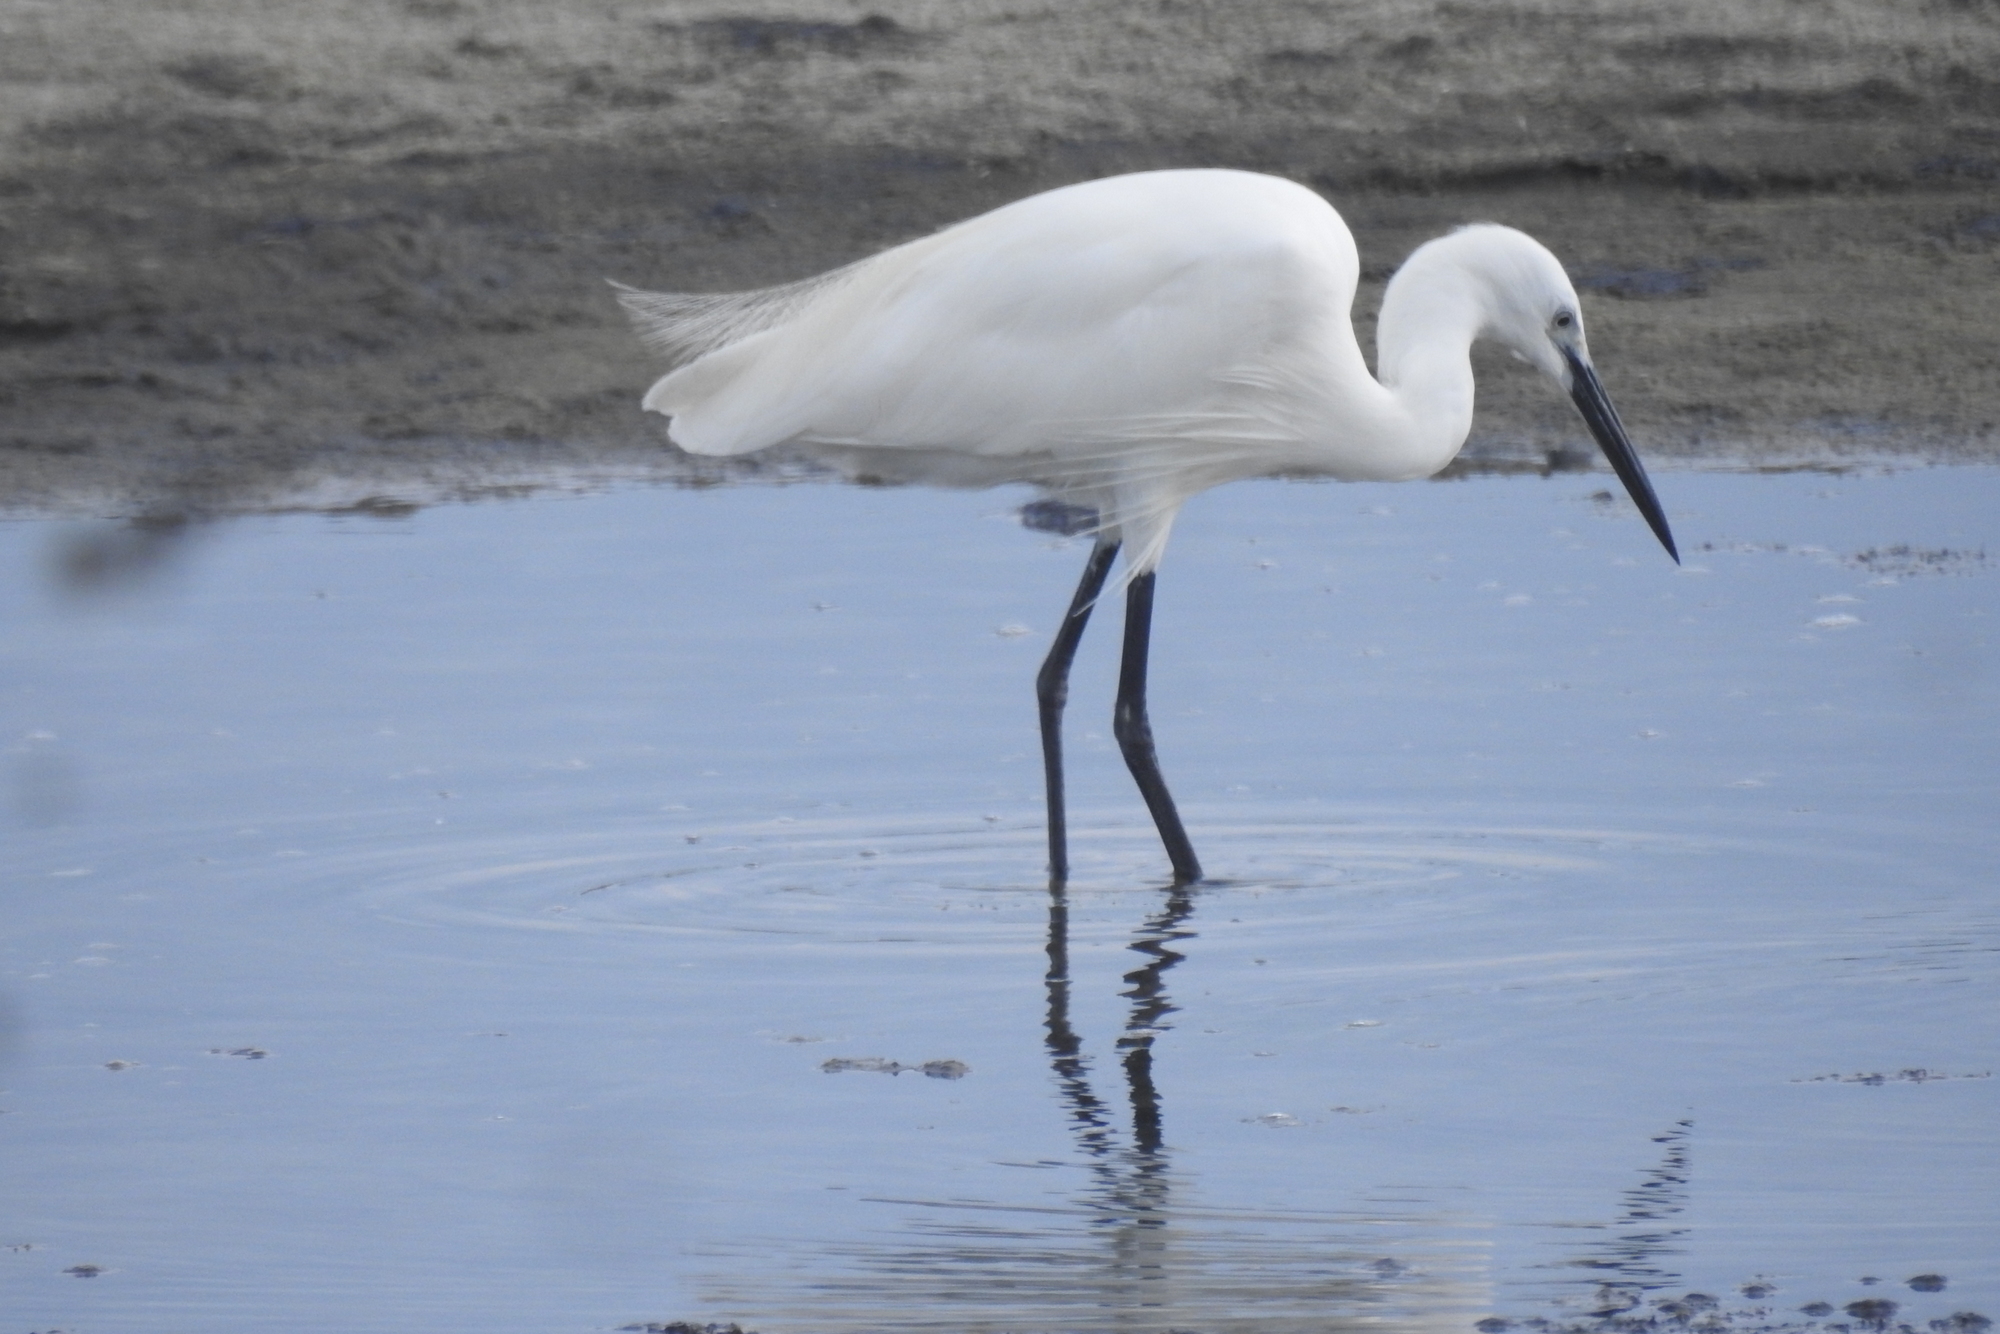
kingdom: Animalia
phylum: Chordata
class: Aves
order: Pelecaniformes
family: Ardeidae
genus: Egretta
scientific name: Egretta garzetta
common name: Little egret
